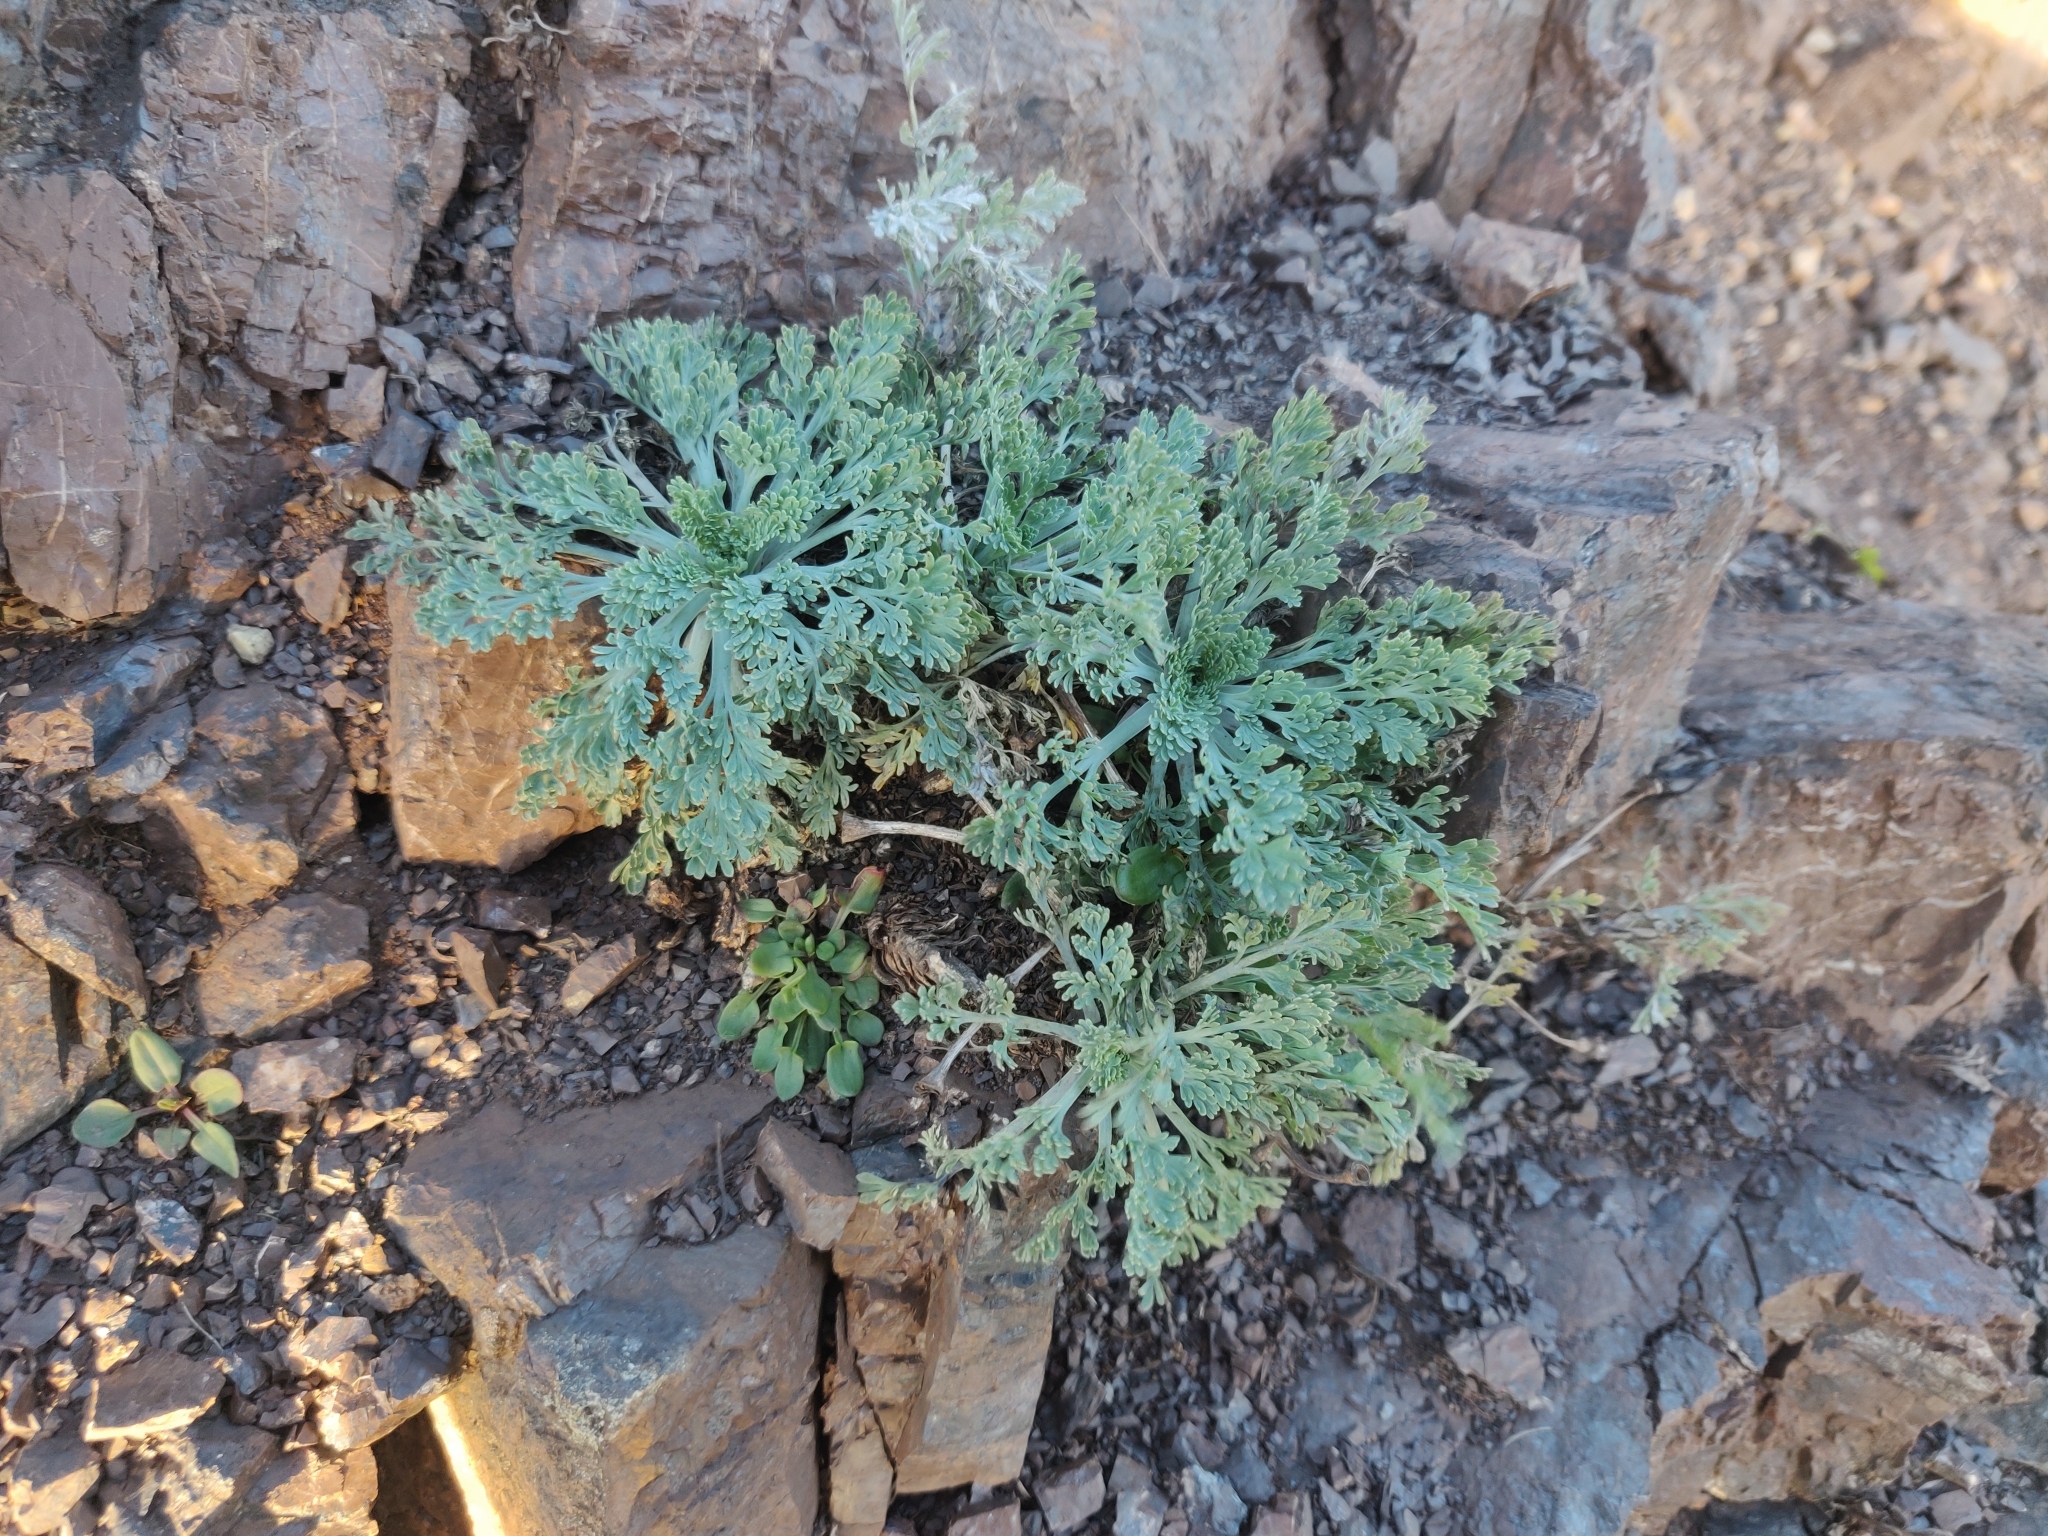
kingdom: Plantae
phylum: Tracheophyta
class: Magnoliopsida
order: Ranunculales
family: Papaveraceae
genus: Eschscholzia
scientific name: Eschscholzia californica
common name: California poppy
